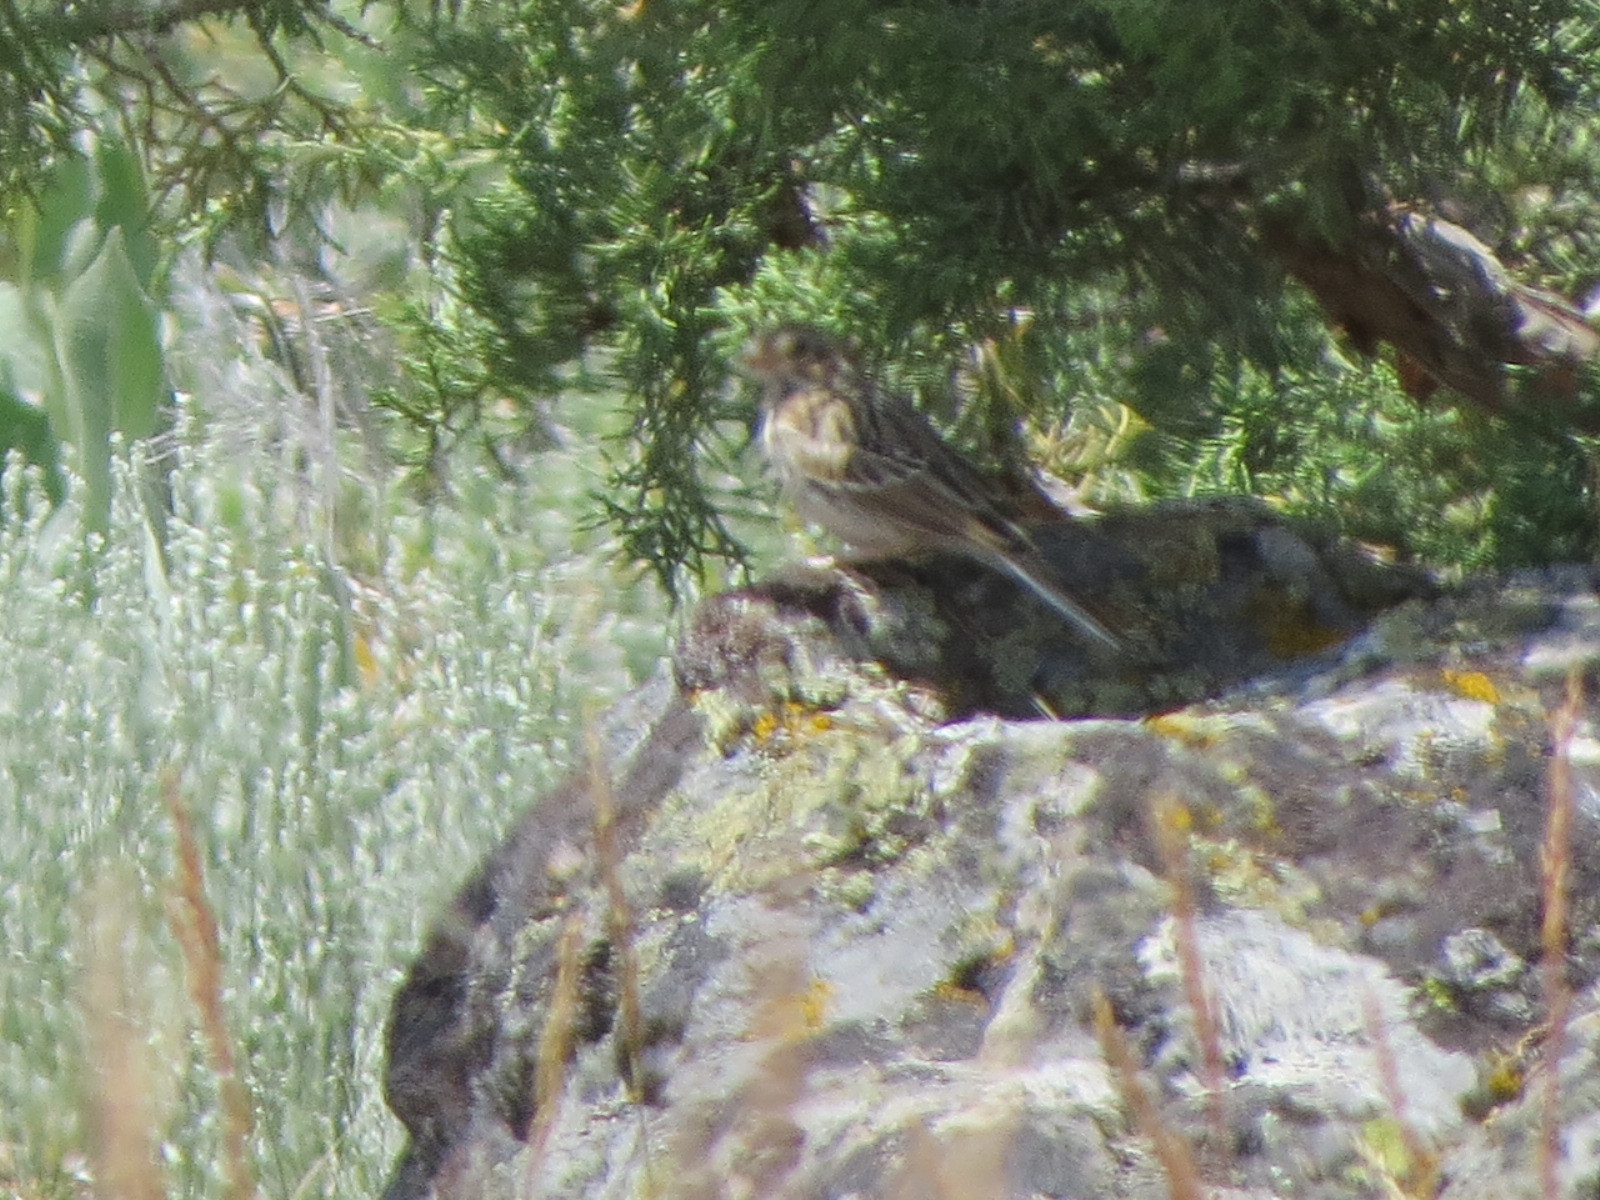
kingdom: Animalia
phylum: Chordata
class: Aves
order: Passeriformes
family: Passerellidae
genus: Pooecetes
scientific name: Pooecetes gramineus
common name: Vesper sparrow
